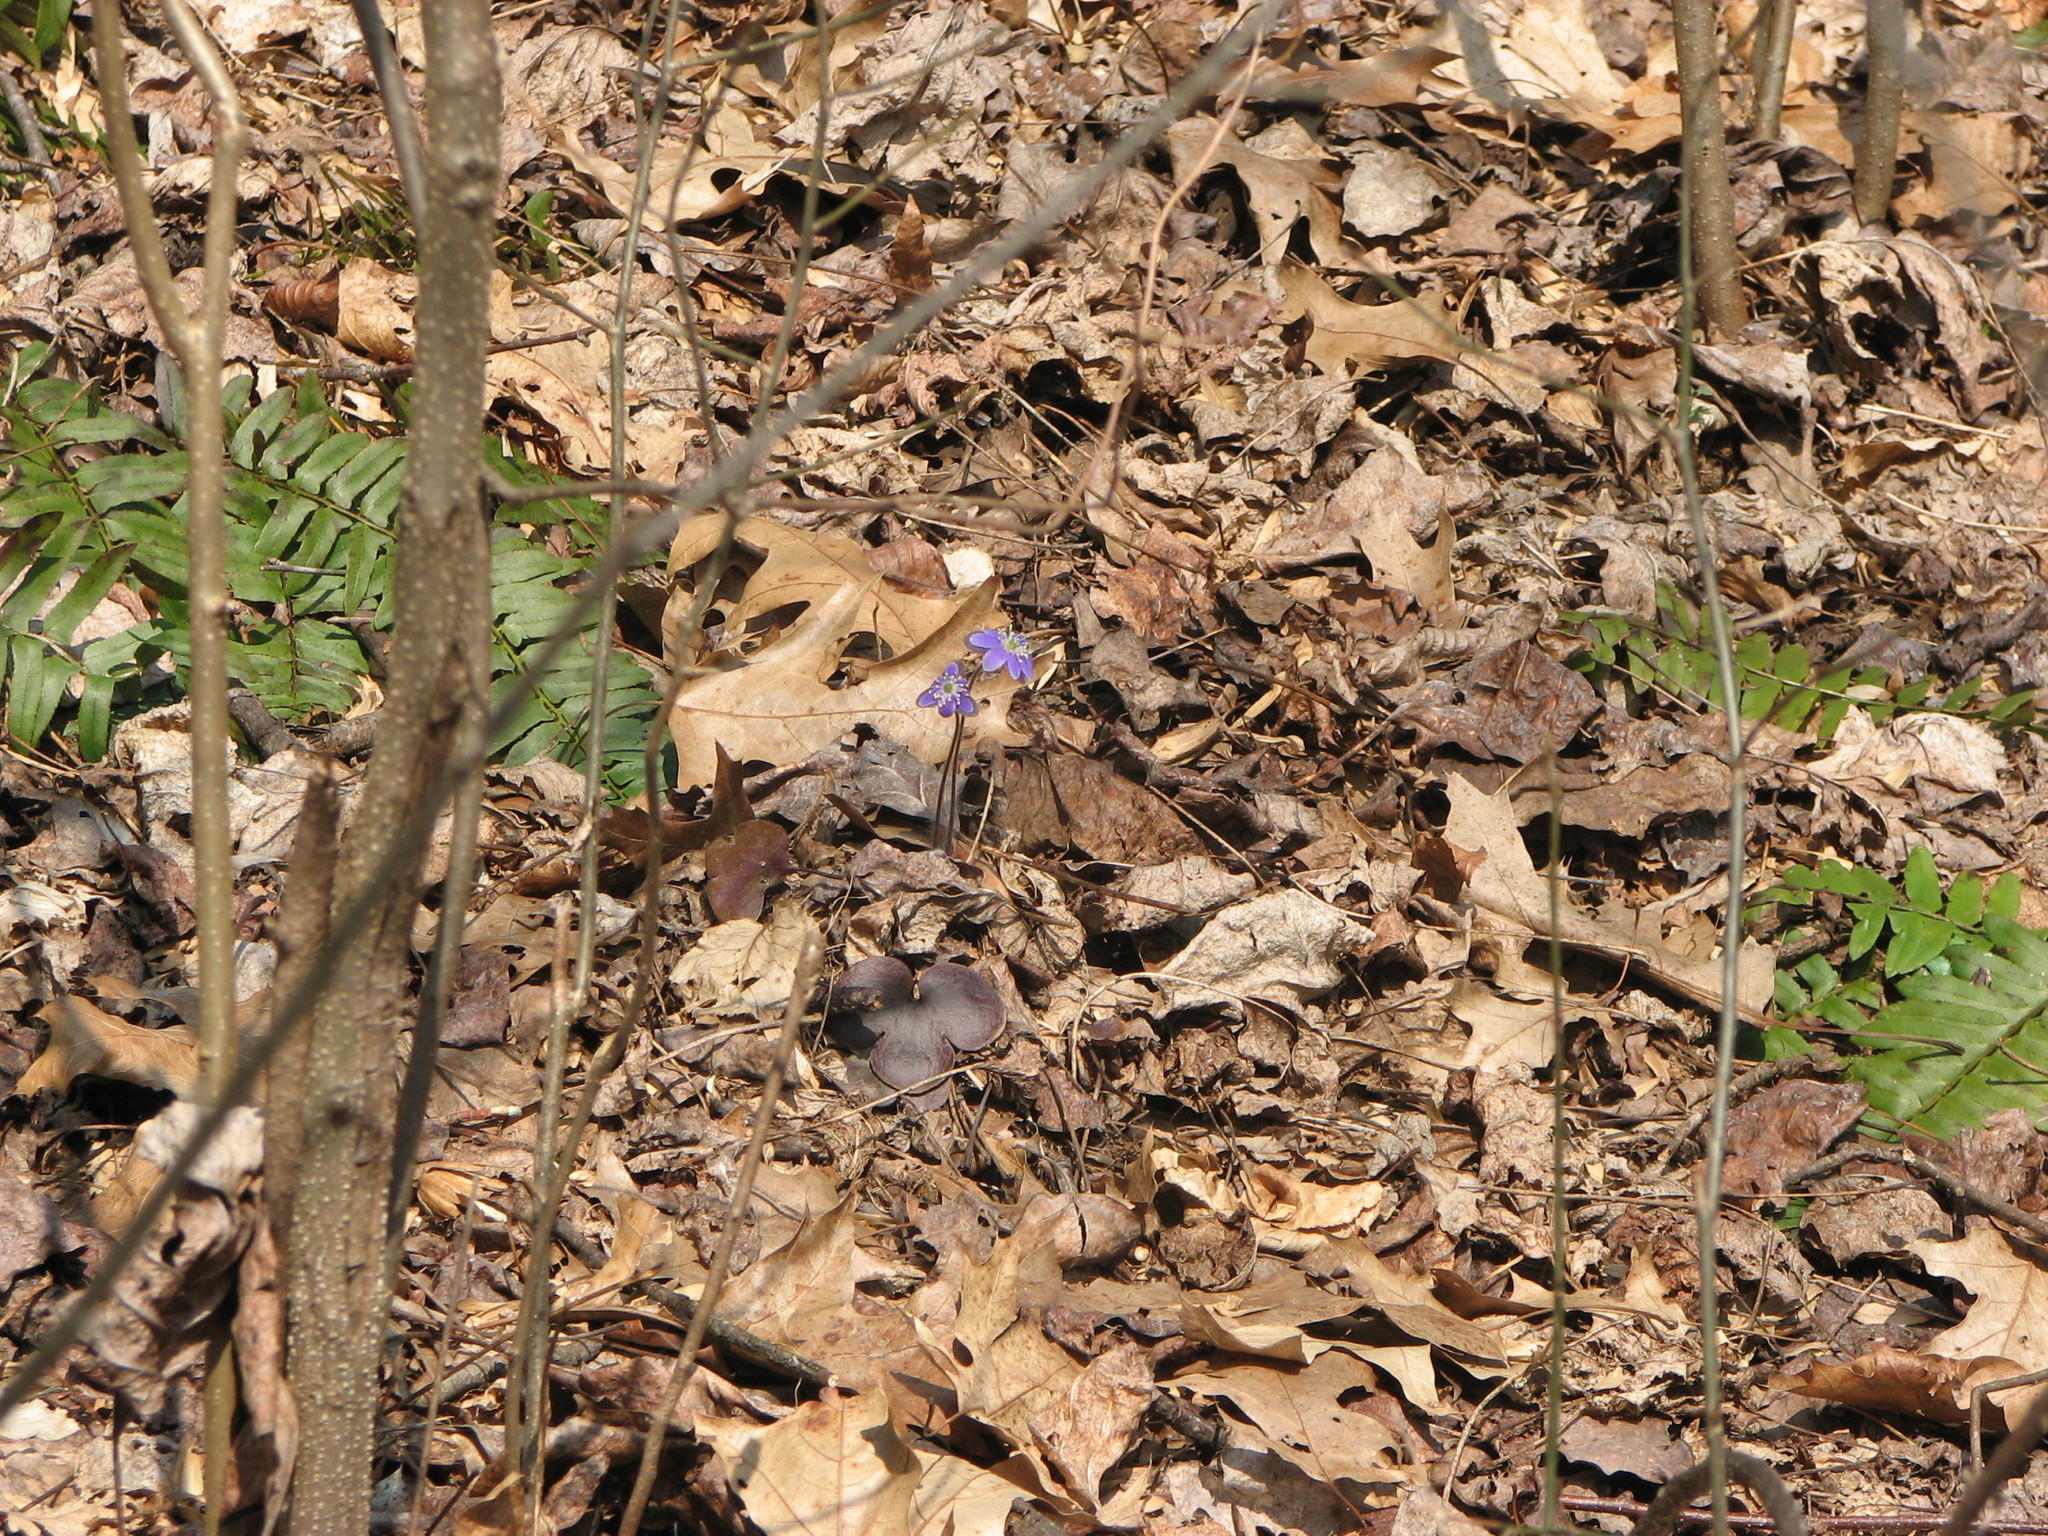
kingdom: Plantae
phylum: Tracheophyta
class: Magnoliopsida
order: Ranunculales
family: Ranunculaceae
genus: Hepatica
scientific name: Hepatica americana
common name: American hepatica
